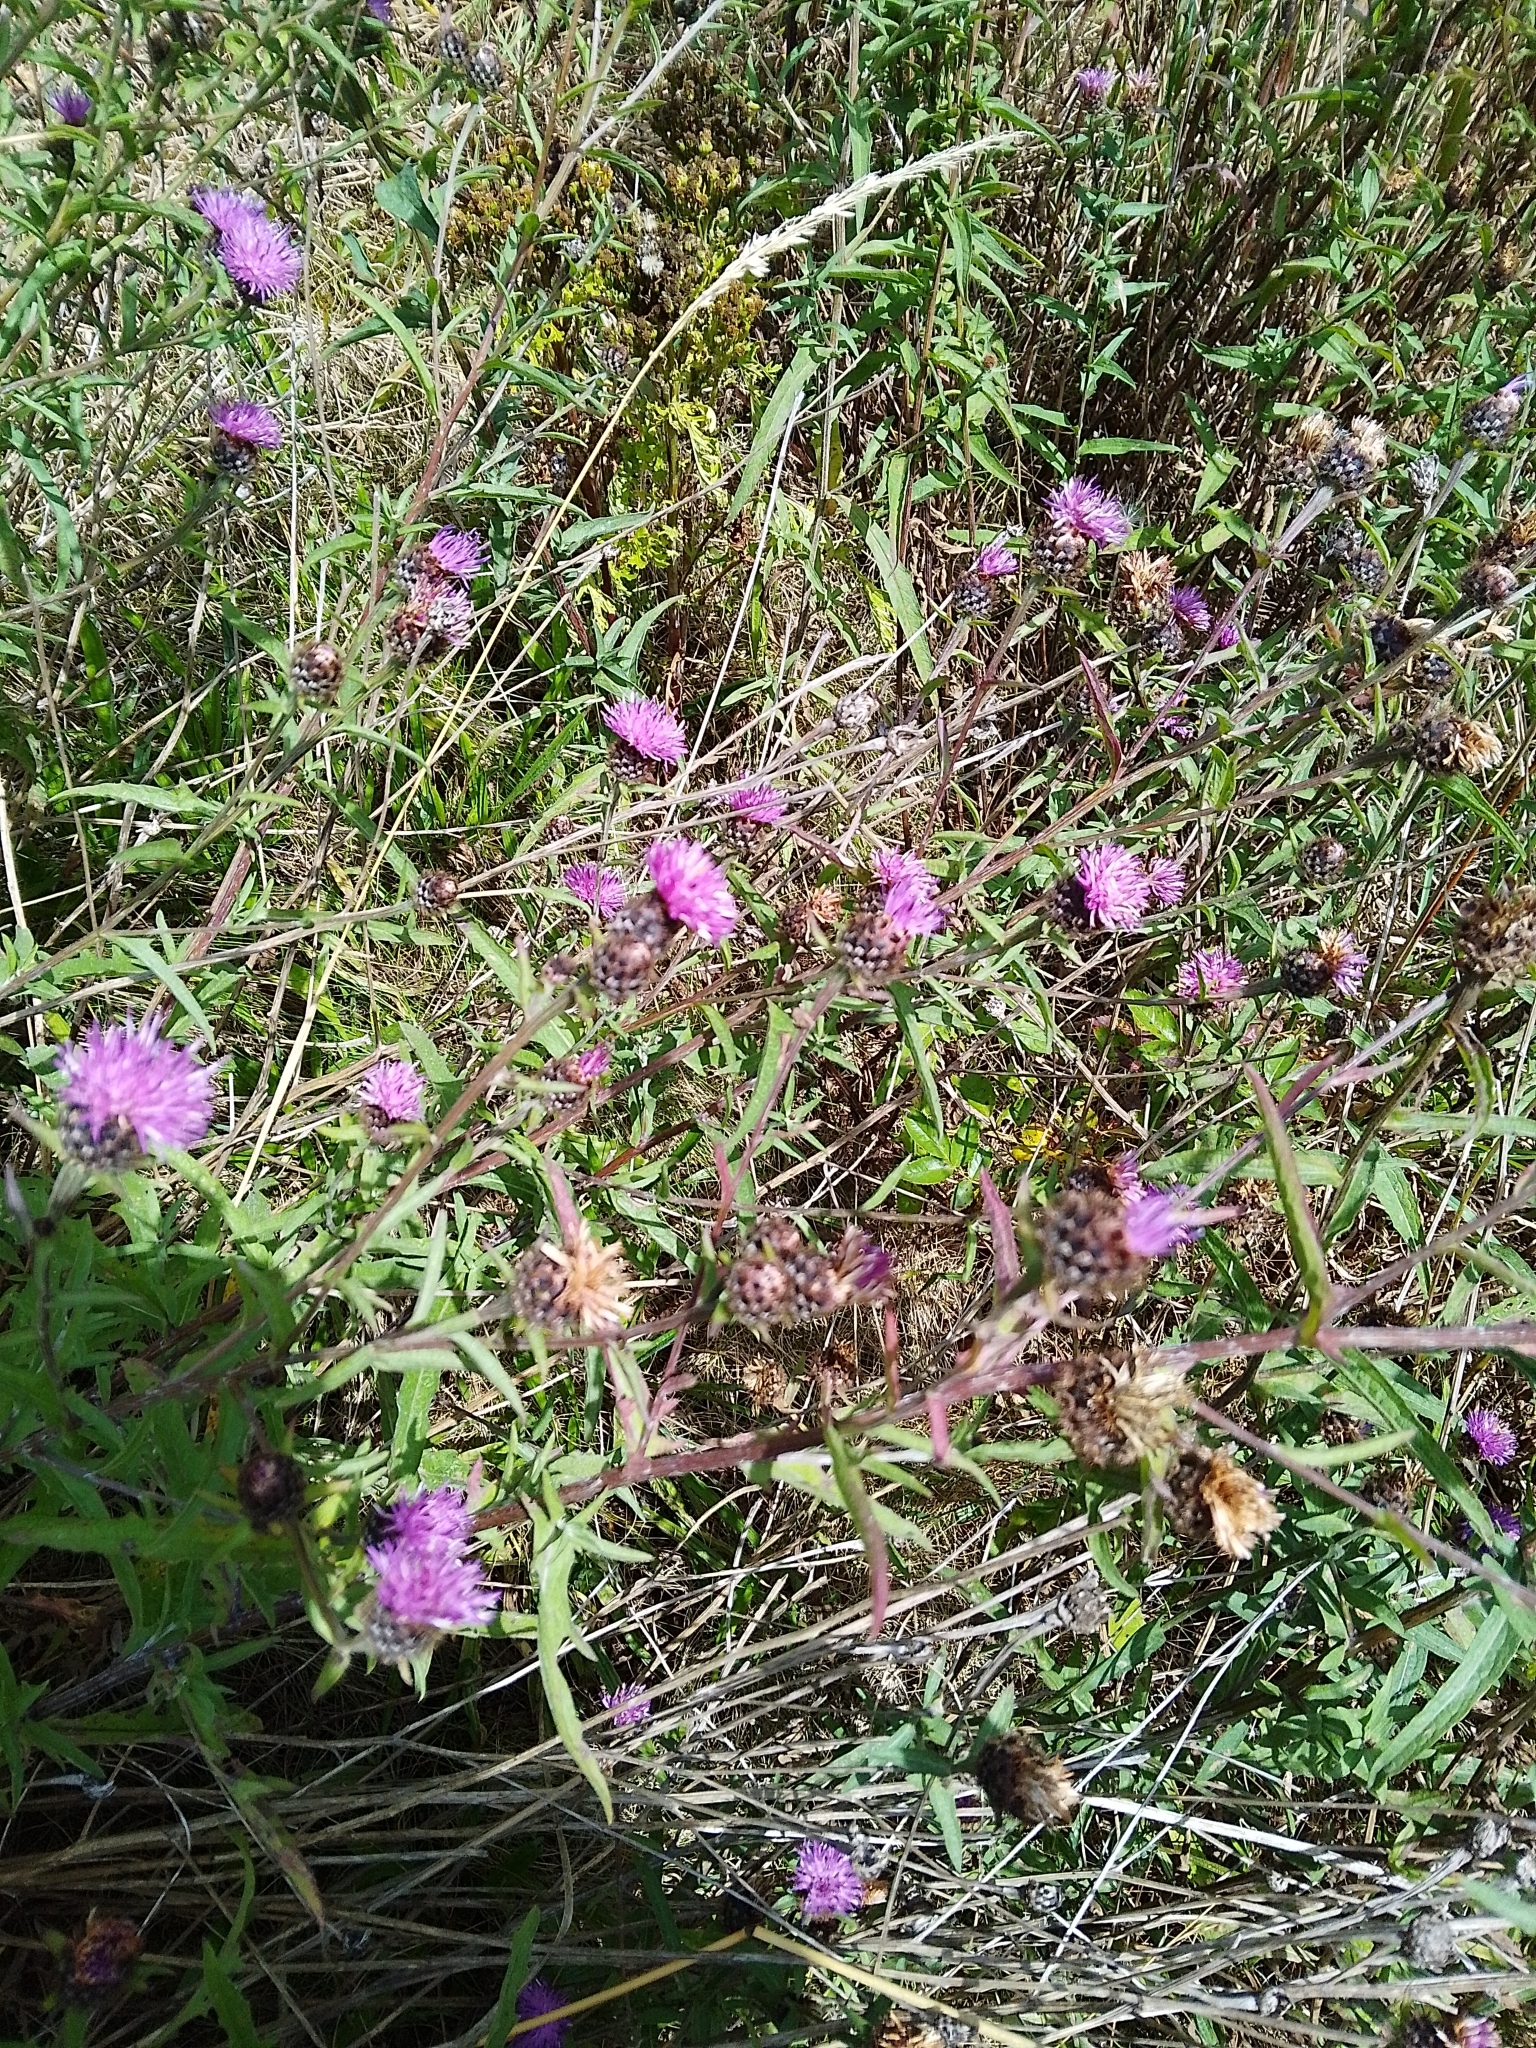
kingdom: Plantae
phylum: Tracheophyta
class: Magnoliopsida
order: Asterales
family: Asteraceae
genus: Centaurea
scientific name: Centaurea nigra
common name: Lesser knapweed
